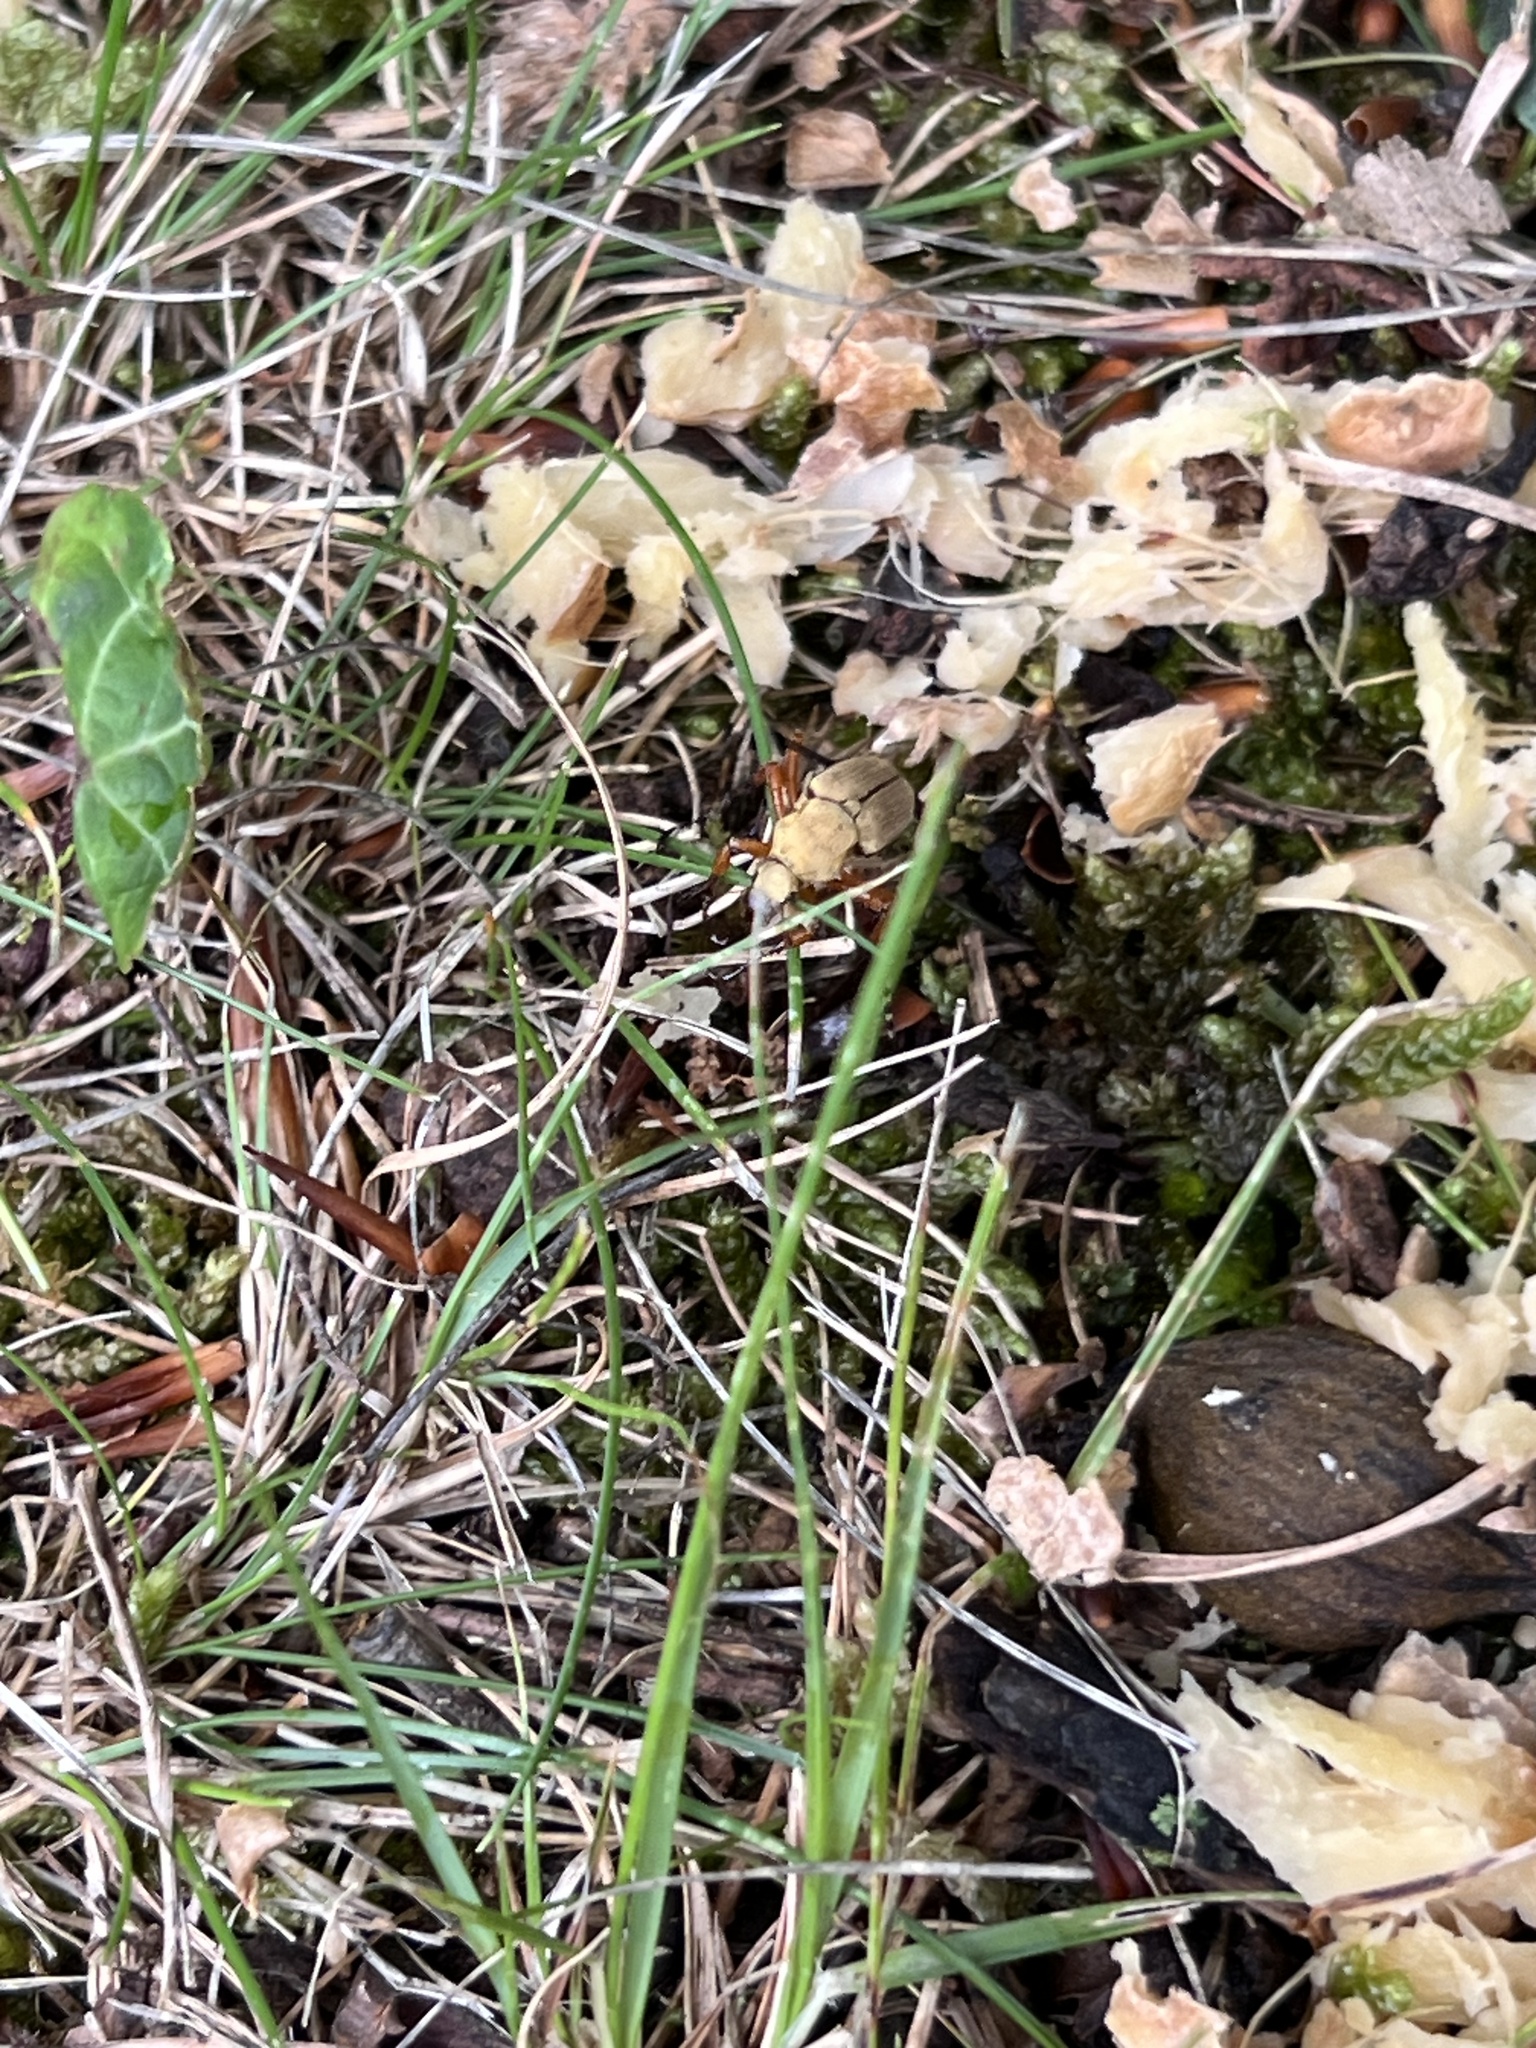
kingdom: Animalia
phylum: Arthropoda
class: Insecta
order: Coleoptera
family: Scarabaeidae
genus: Macrodactylus
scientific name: Macrodactylus subspinosus
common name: American rose chafer
